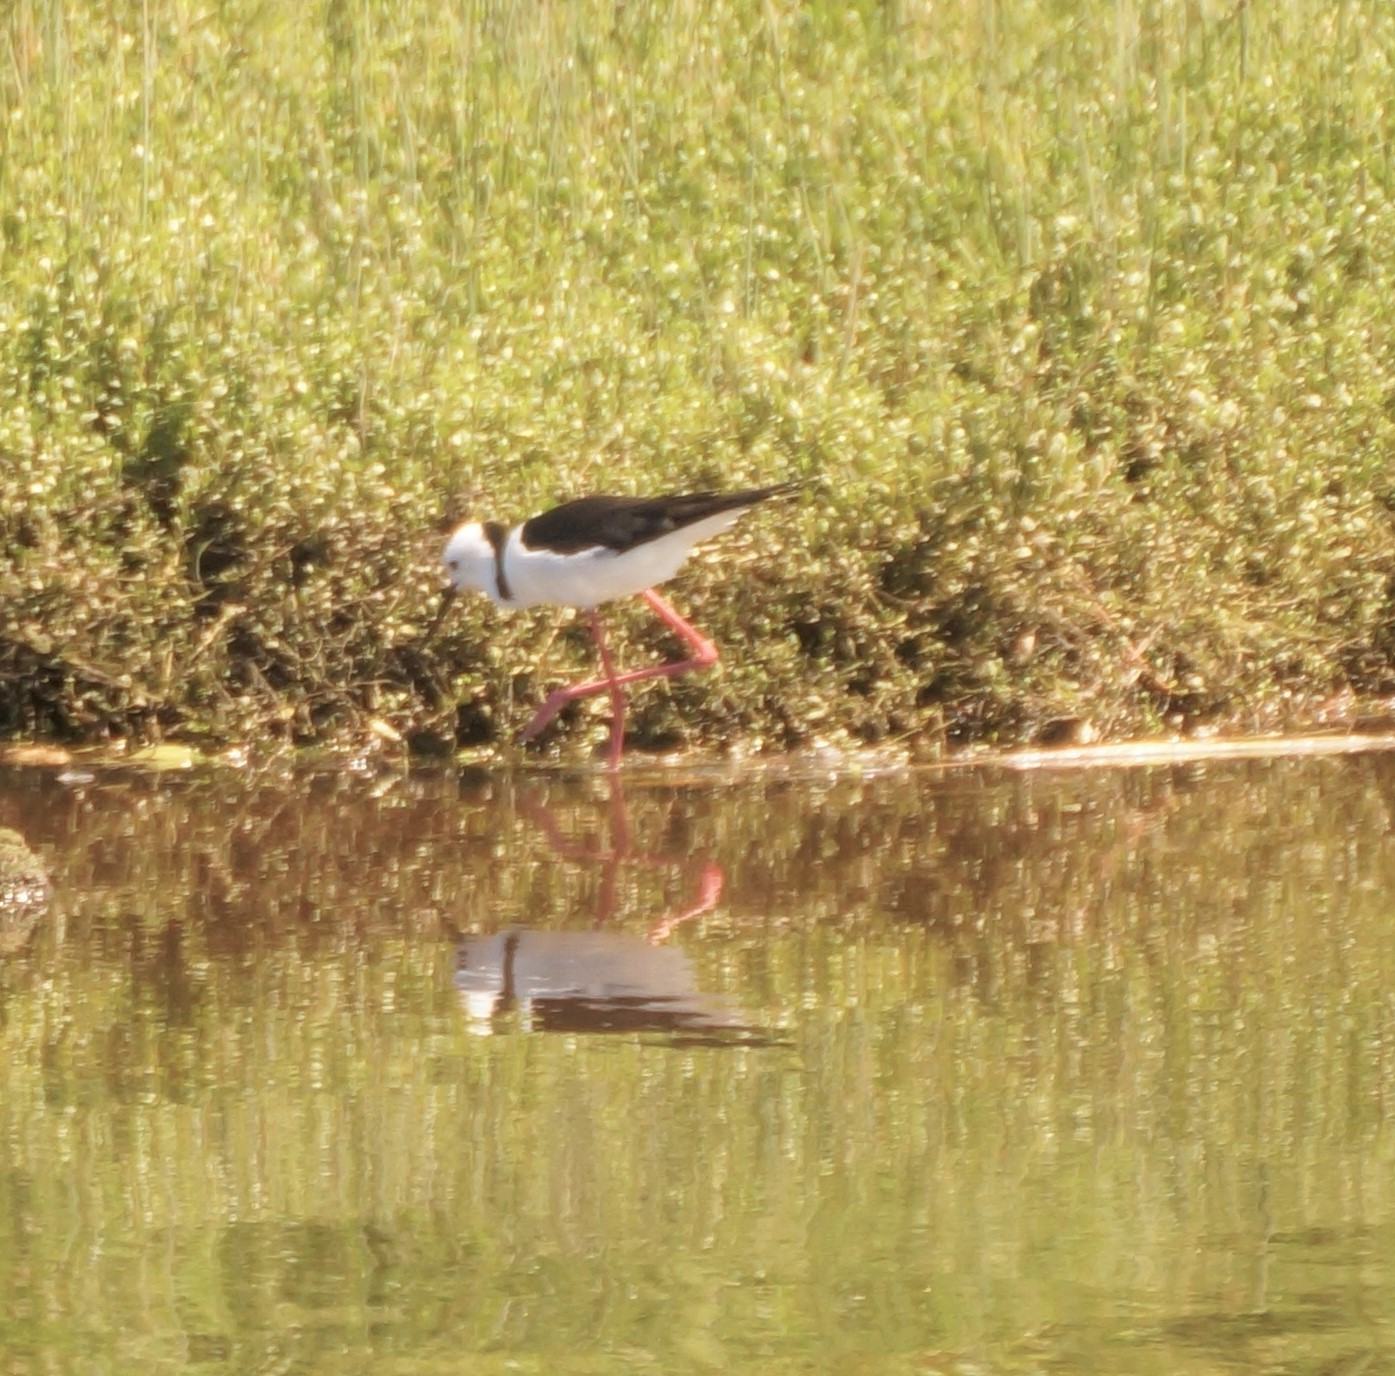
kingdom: Animalia
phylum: Chordata
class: Aves
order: Charadriiformes
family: Recurvirostridae
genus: Himantopus
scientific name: Himantopus leucocephalus
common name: White-headed stilt
